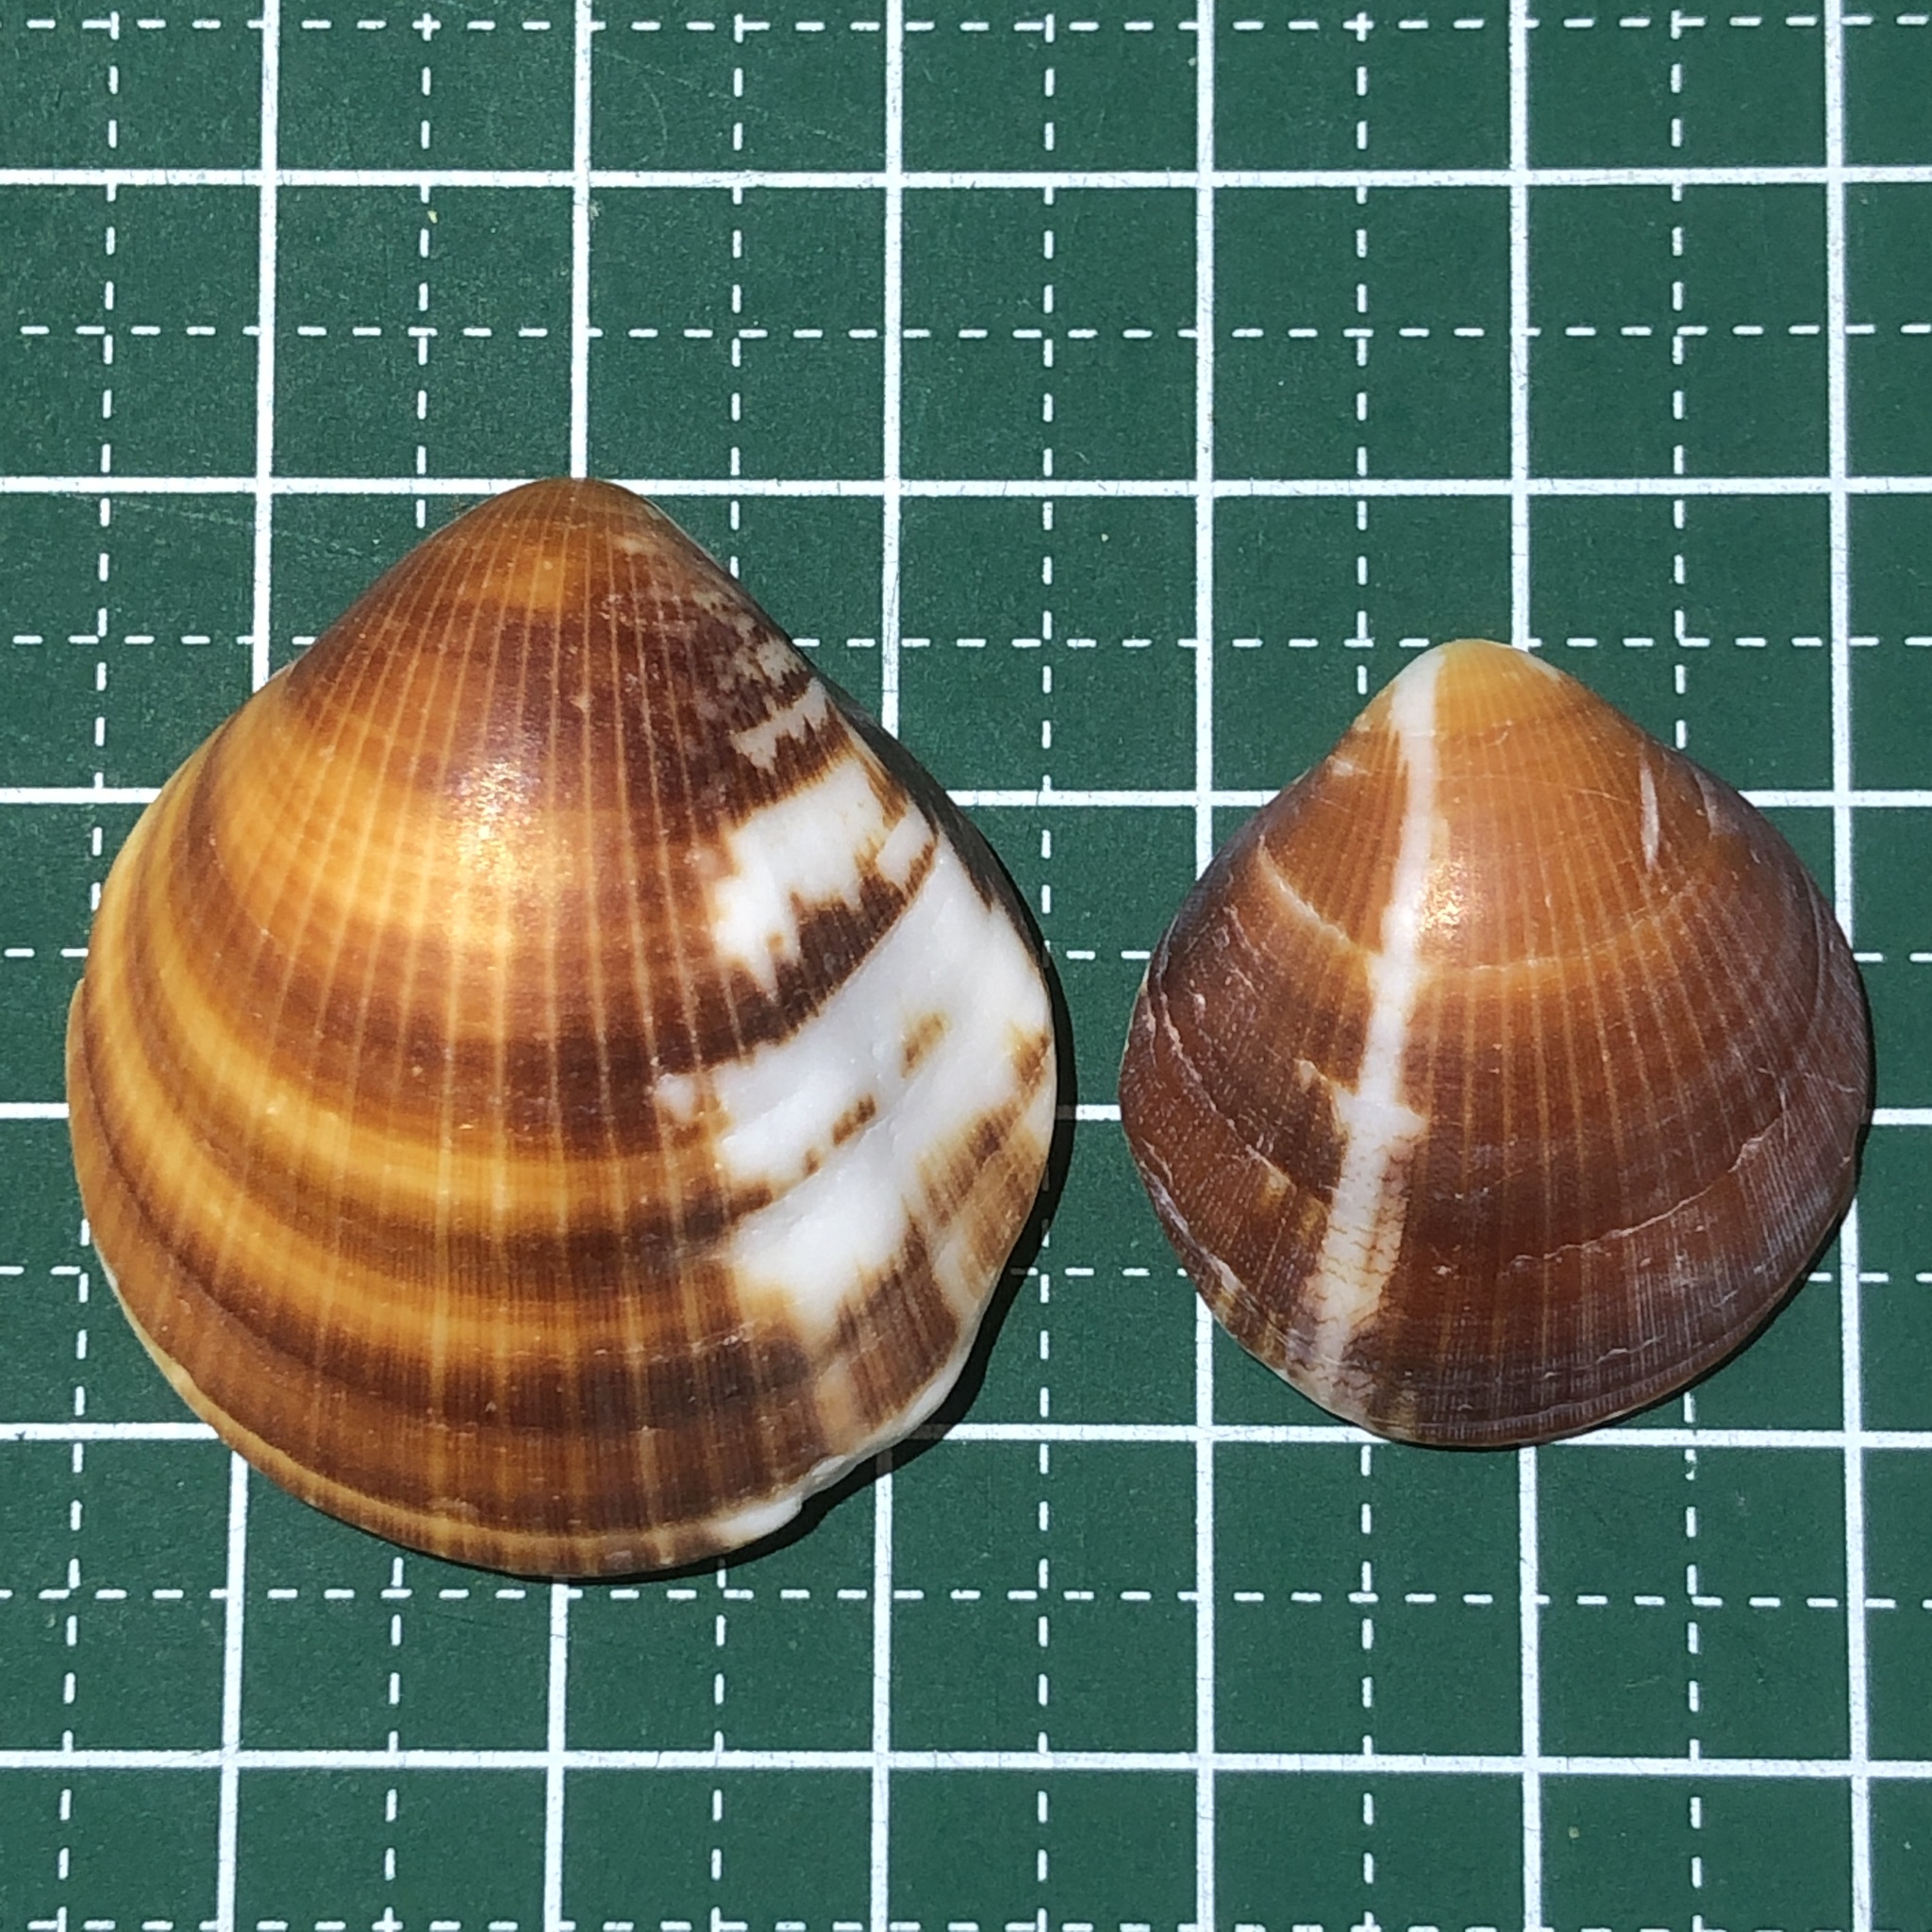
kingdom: Animalia
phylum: Mollusca
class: Bivalvia
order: Arcida
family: Glycymerididae
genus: Glycymeris
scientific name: Glycymeris reevei
